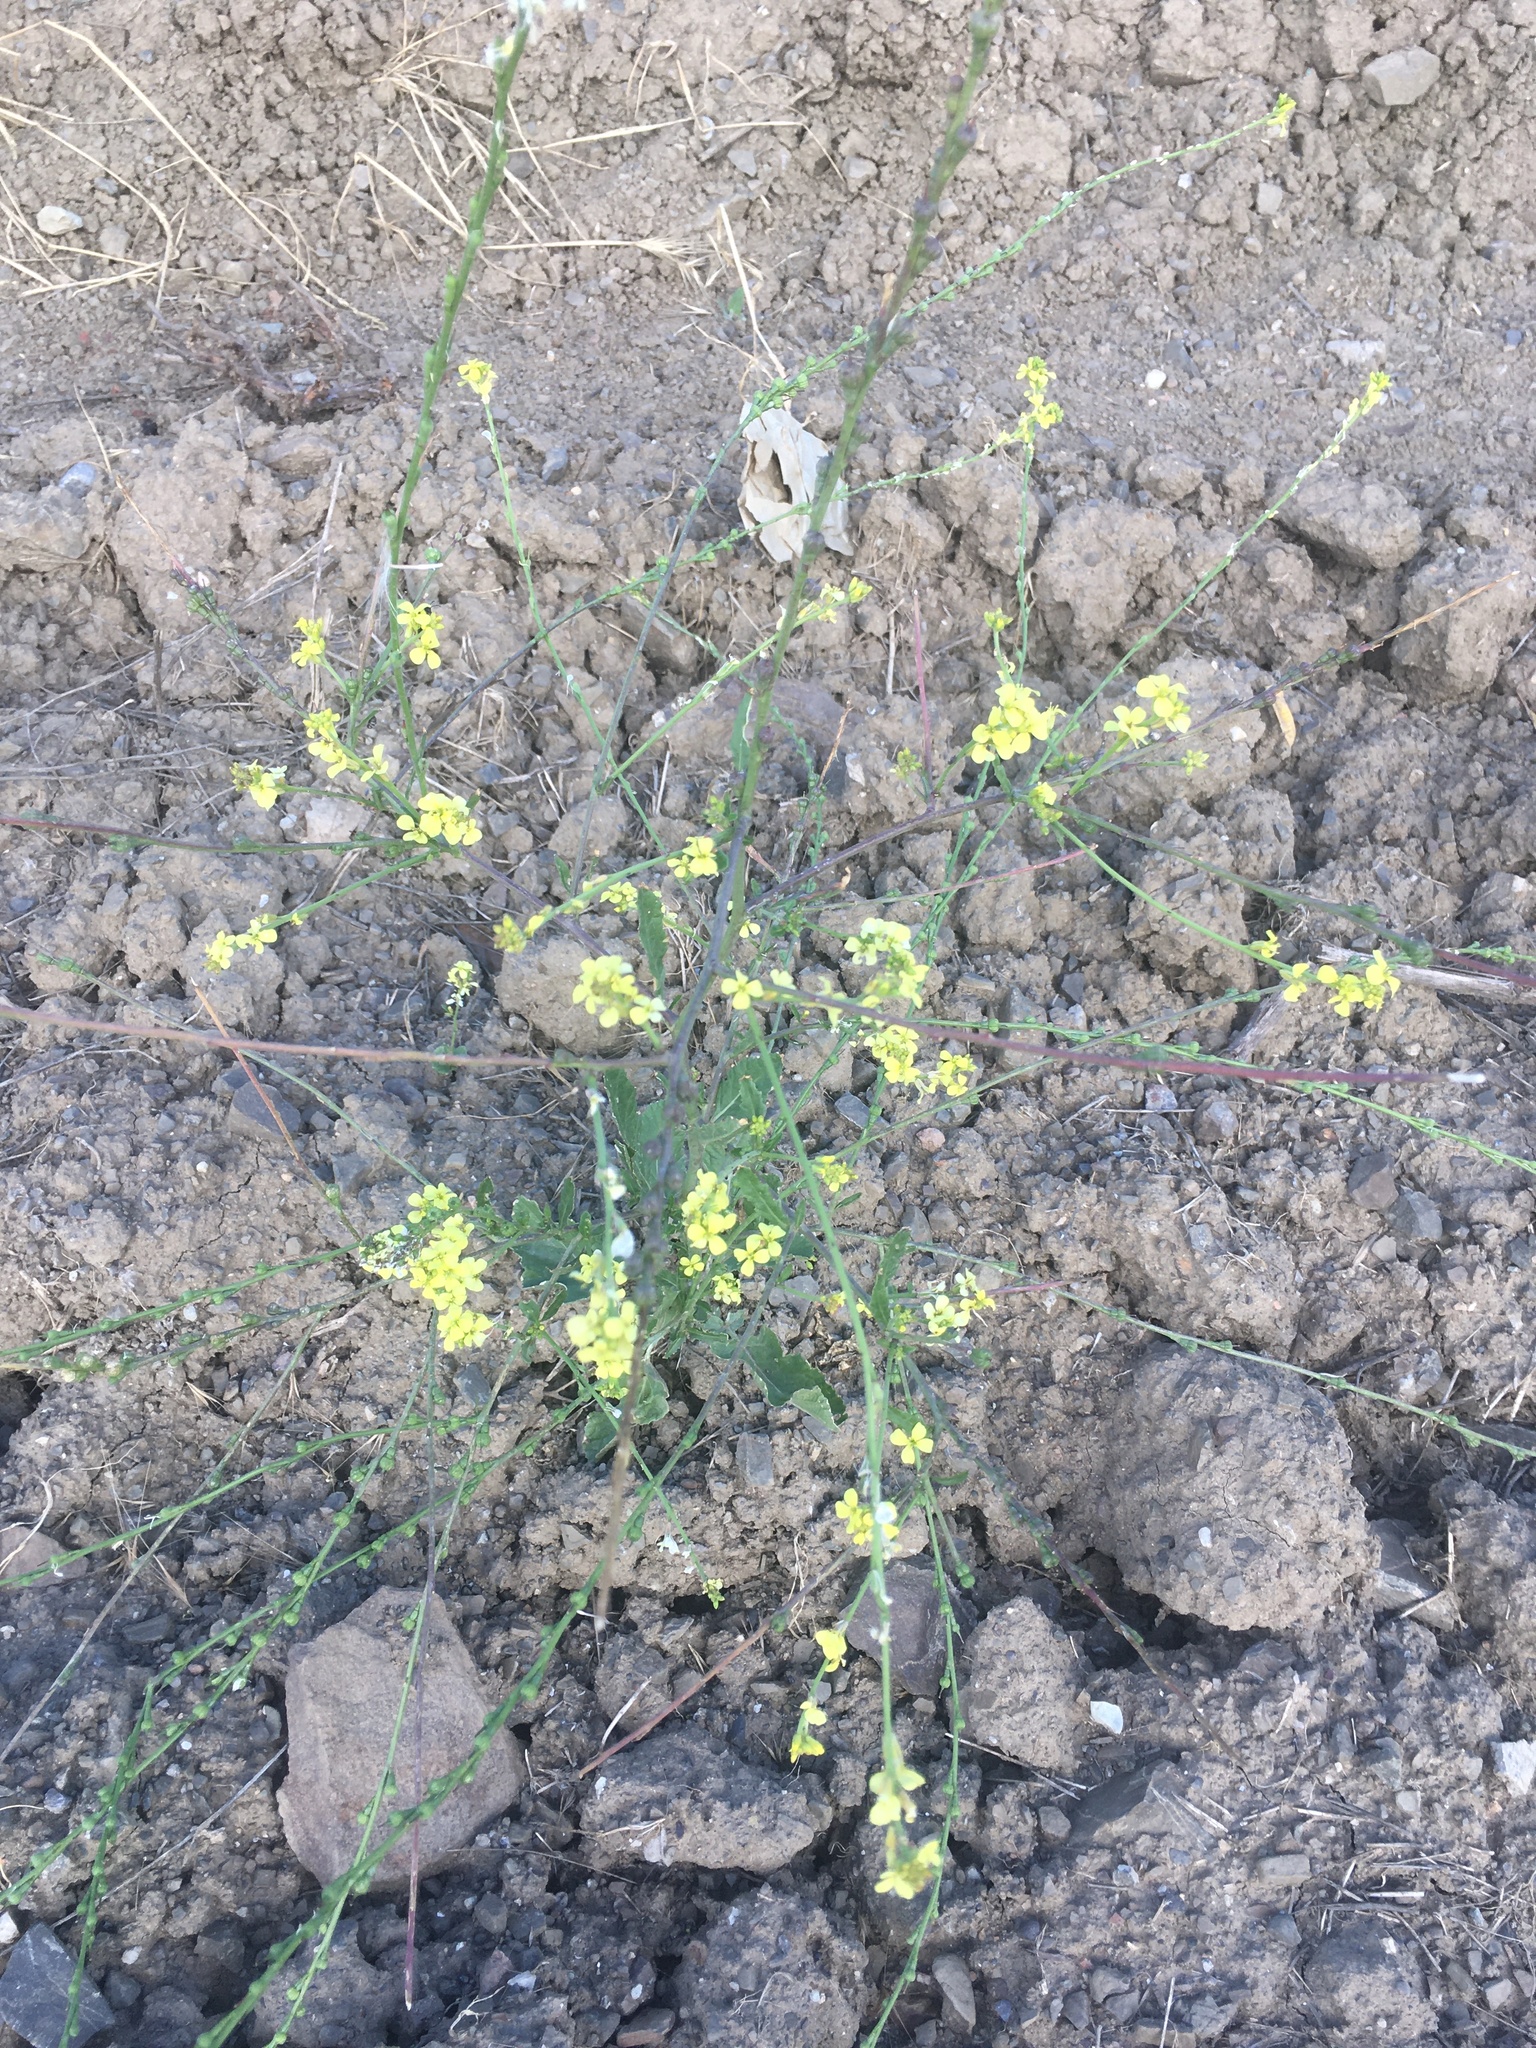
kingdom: Plantae
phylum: Tracheophyta
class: Magnoliopsida
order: Brassicales
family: Brassicaceae
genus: Rapistrum
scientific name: Rapistrum rugosum
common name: Annual bastardcabbage
